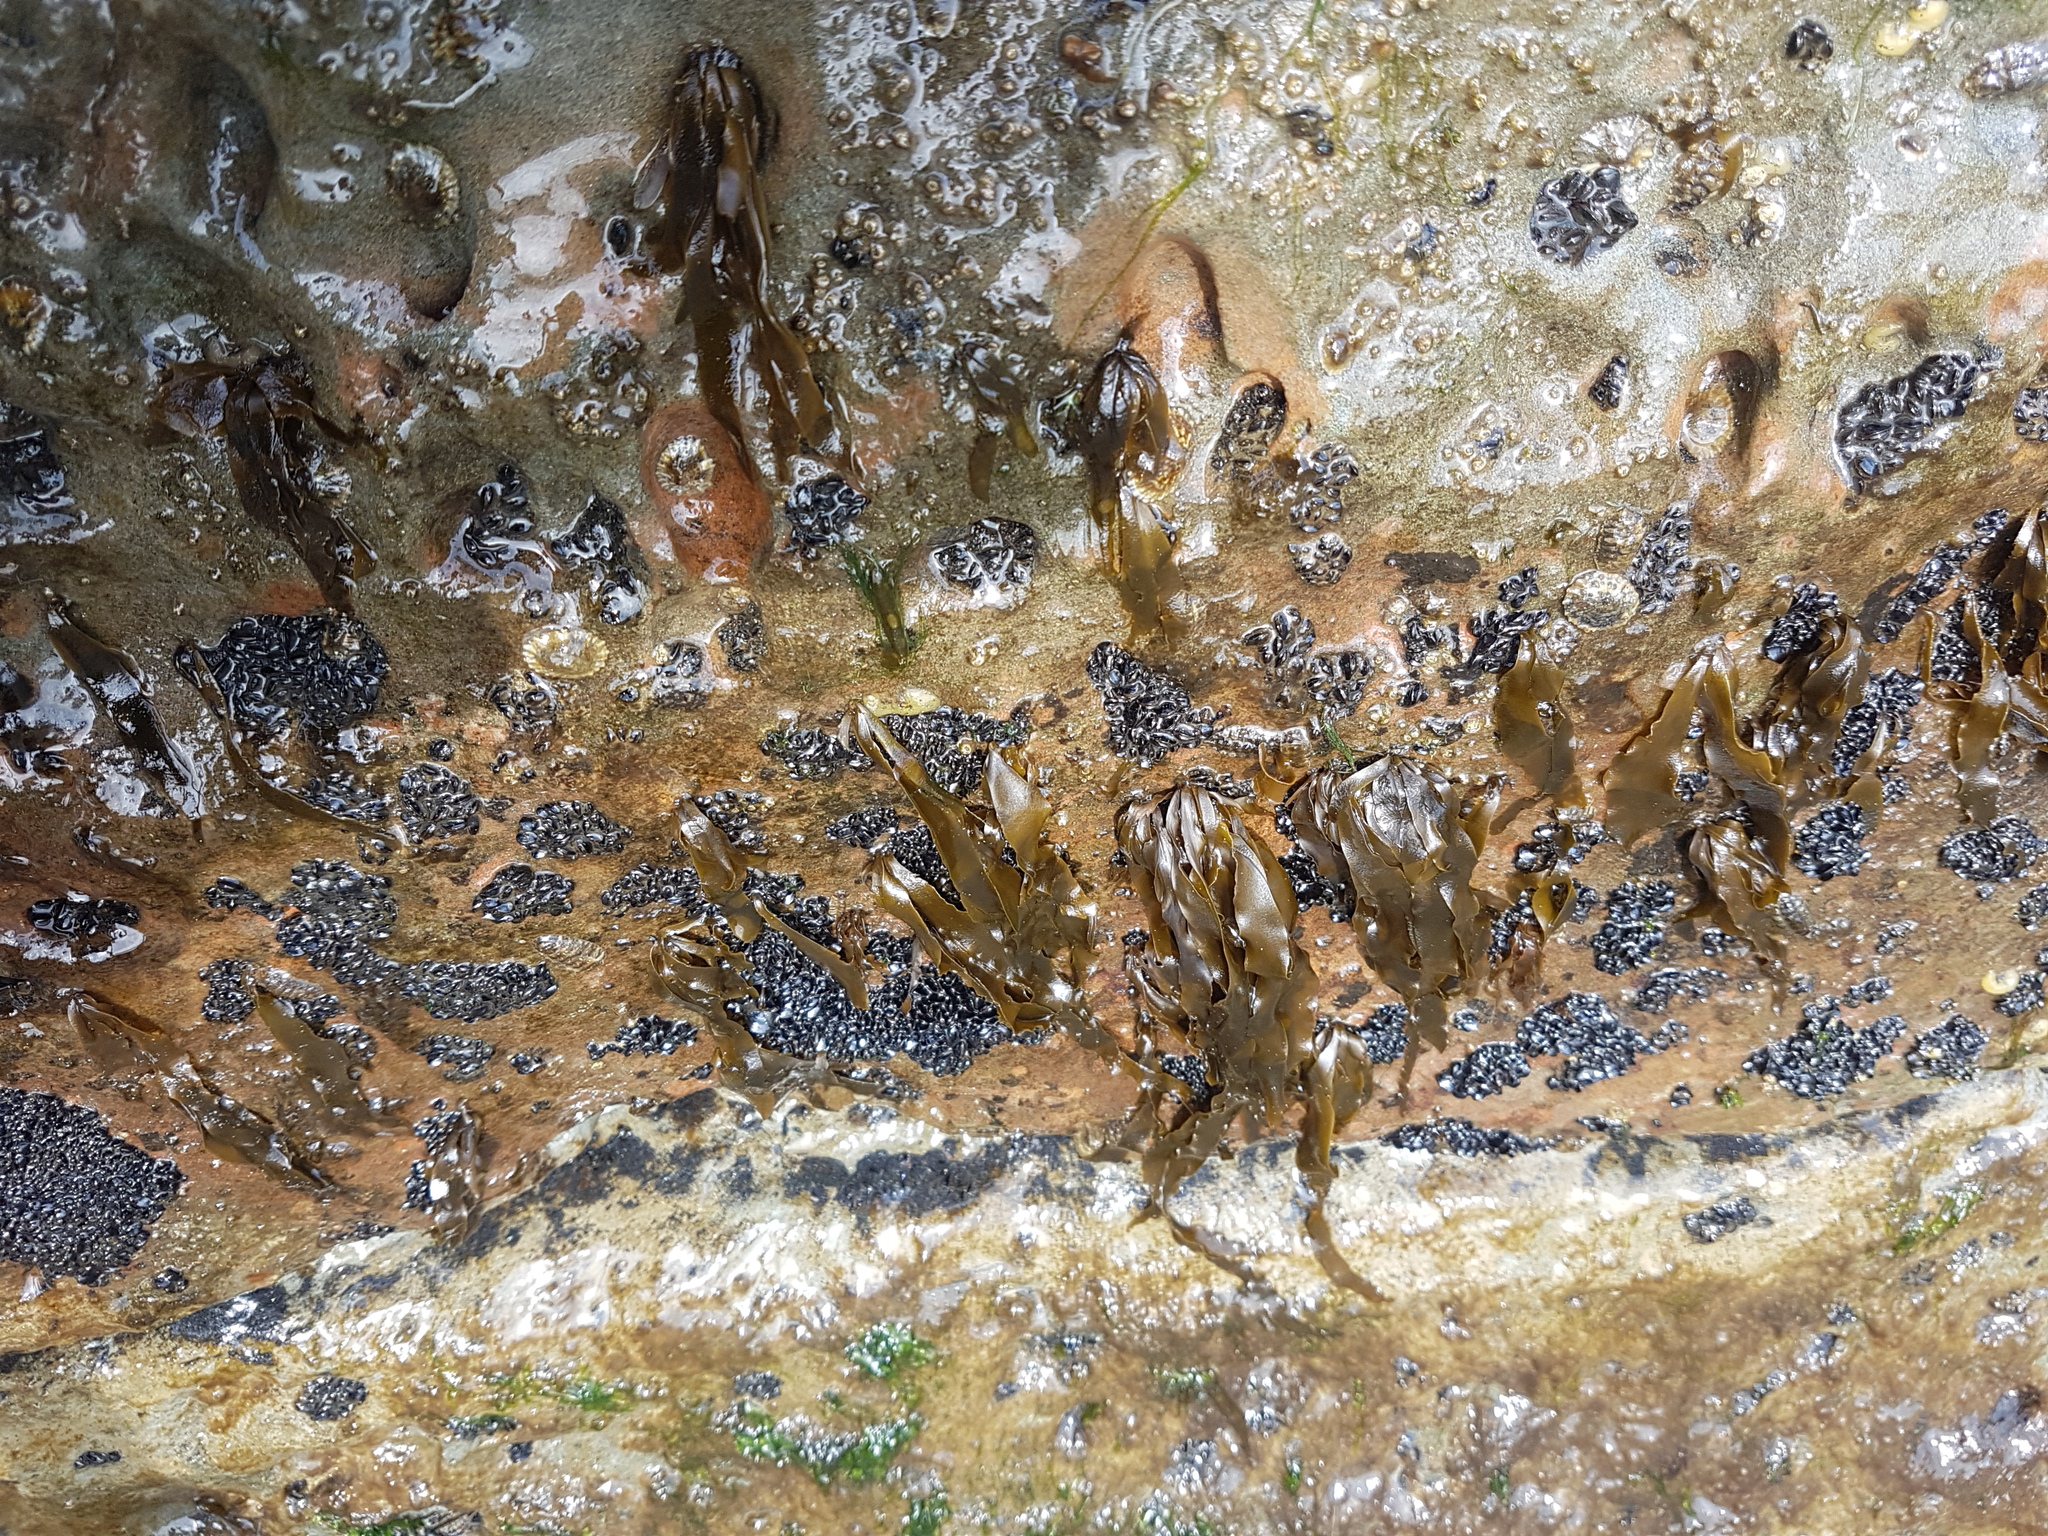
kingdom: Chromista
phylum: Ochrophyta
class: Phaeophyceae
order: Scytosiphonales
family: Scytosiphonaceae
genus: Petalonia
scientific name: Petalonia binghamiae
